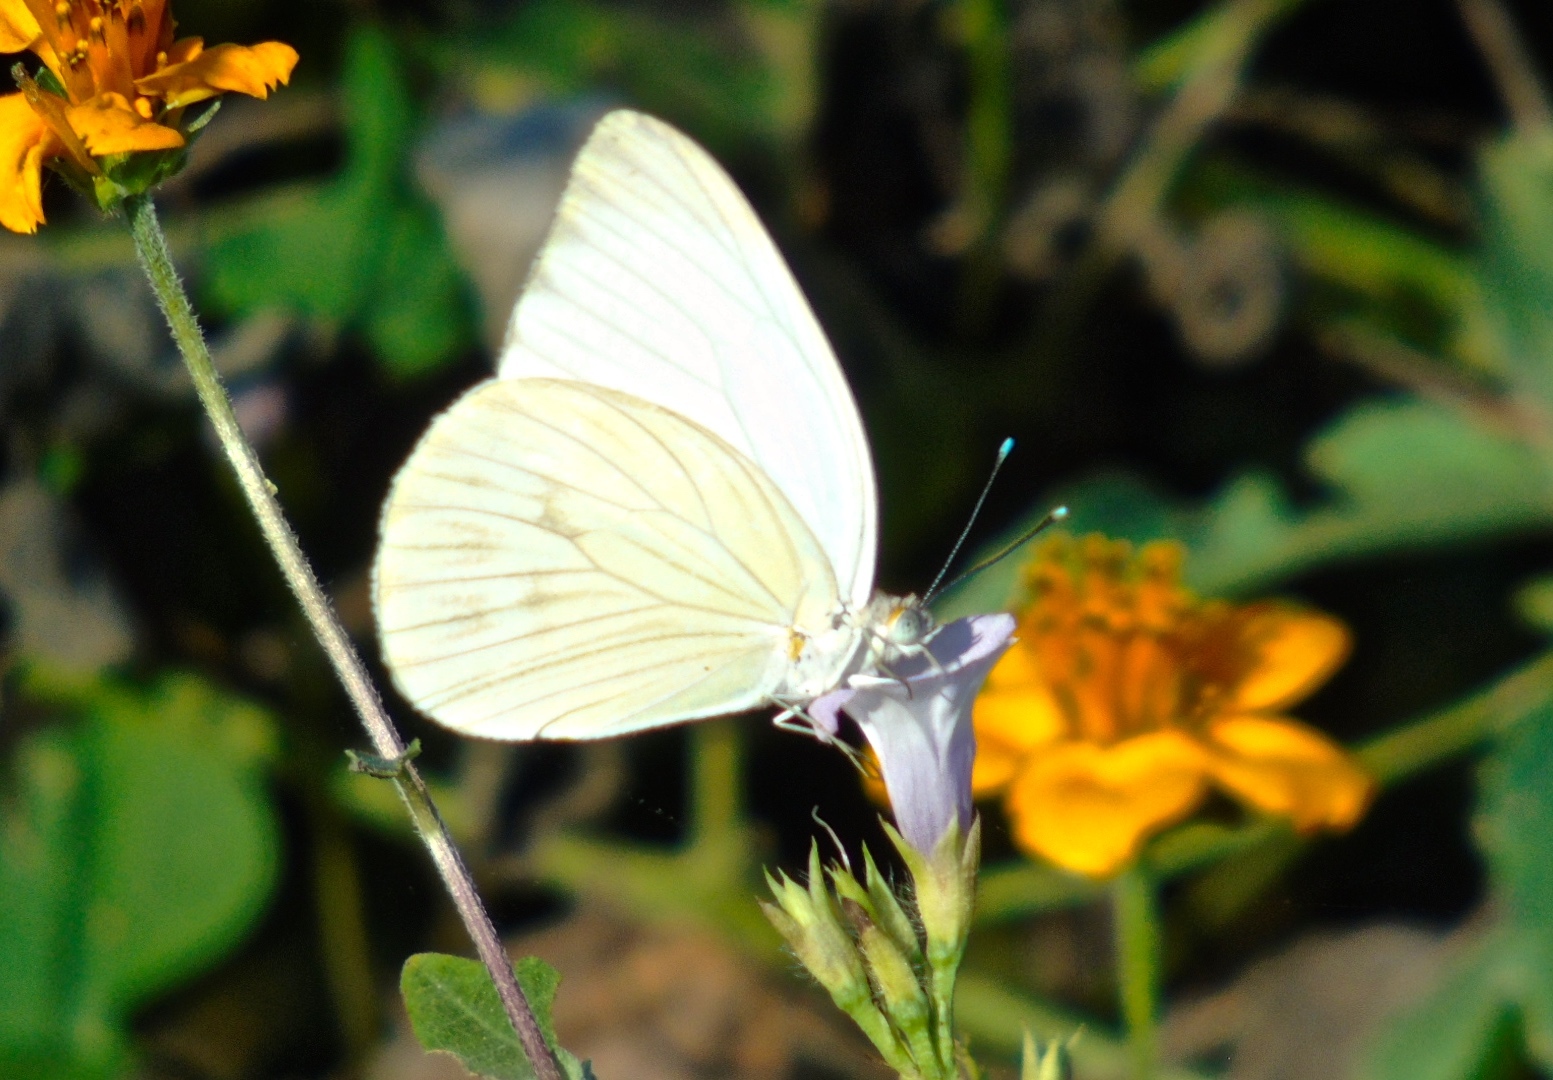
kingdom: Animalia
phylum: Arthropoda
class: Insecta
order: Lepidoptera
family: Pieridae
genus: Ascia
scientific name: Ascia monuste
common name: Great southern white
